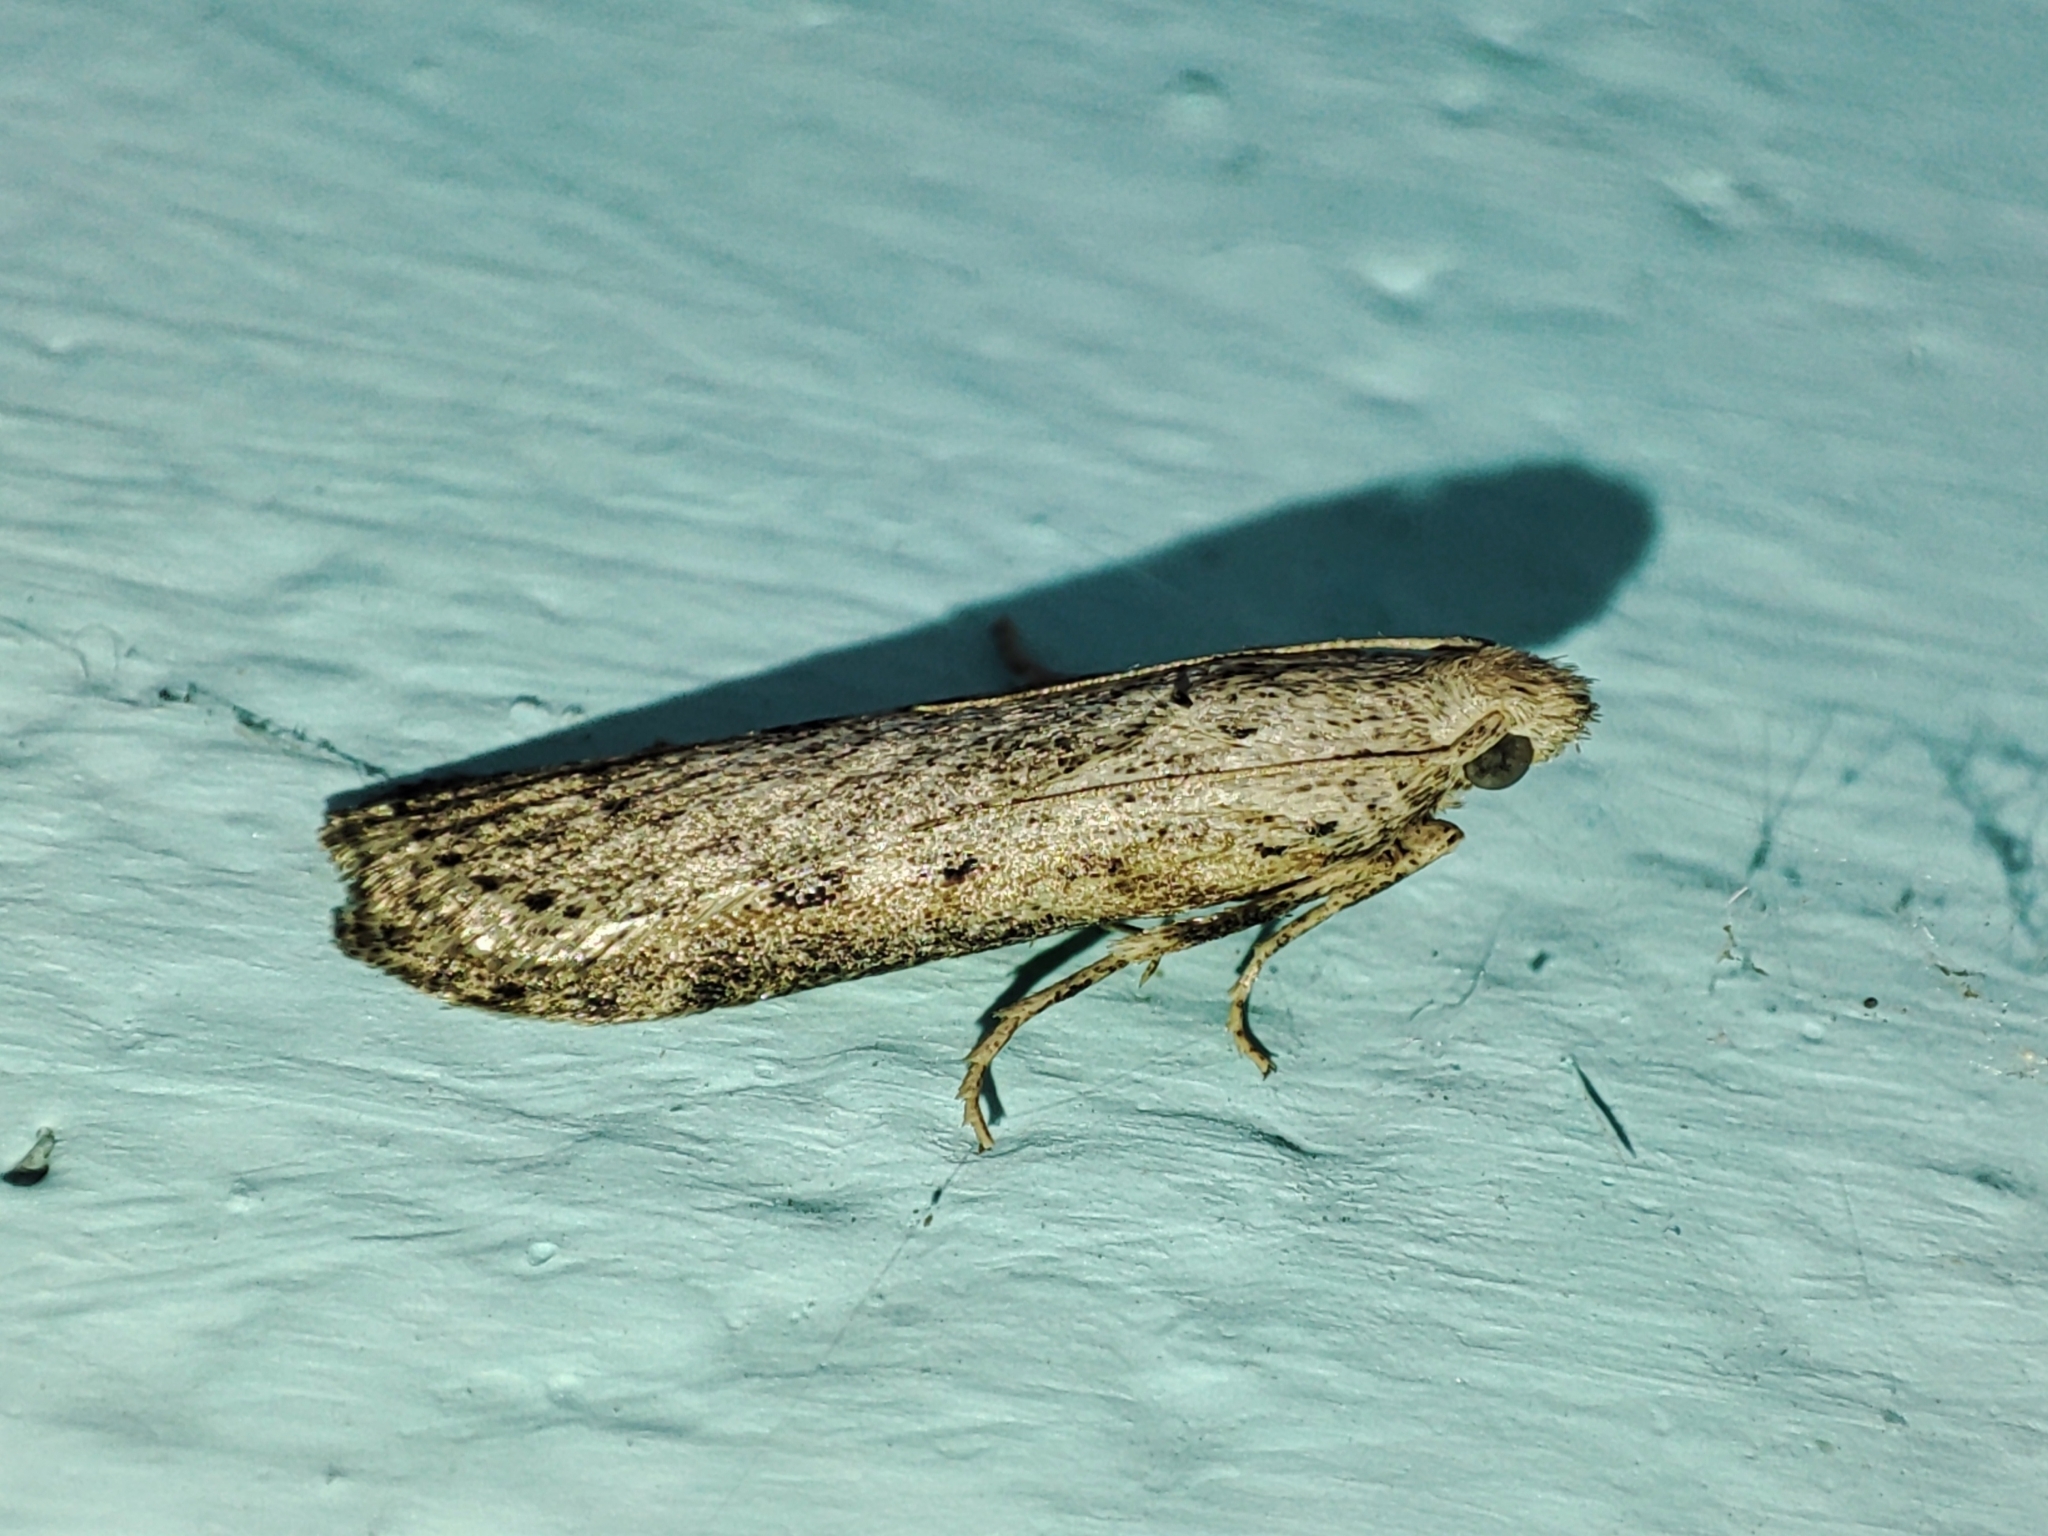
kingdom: Animalia
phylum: Arthropoda
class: Insecta
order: Lepidoptera
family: Pyralidae
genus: Aphomia
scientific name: Aphomia zelleri
